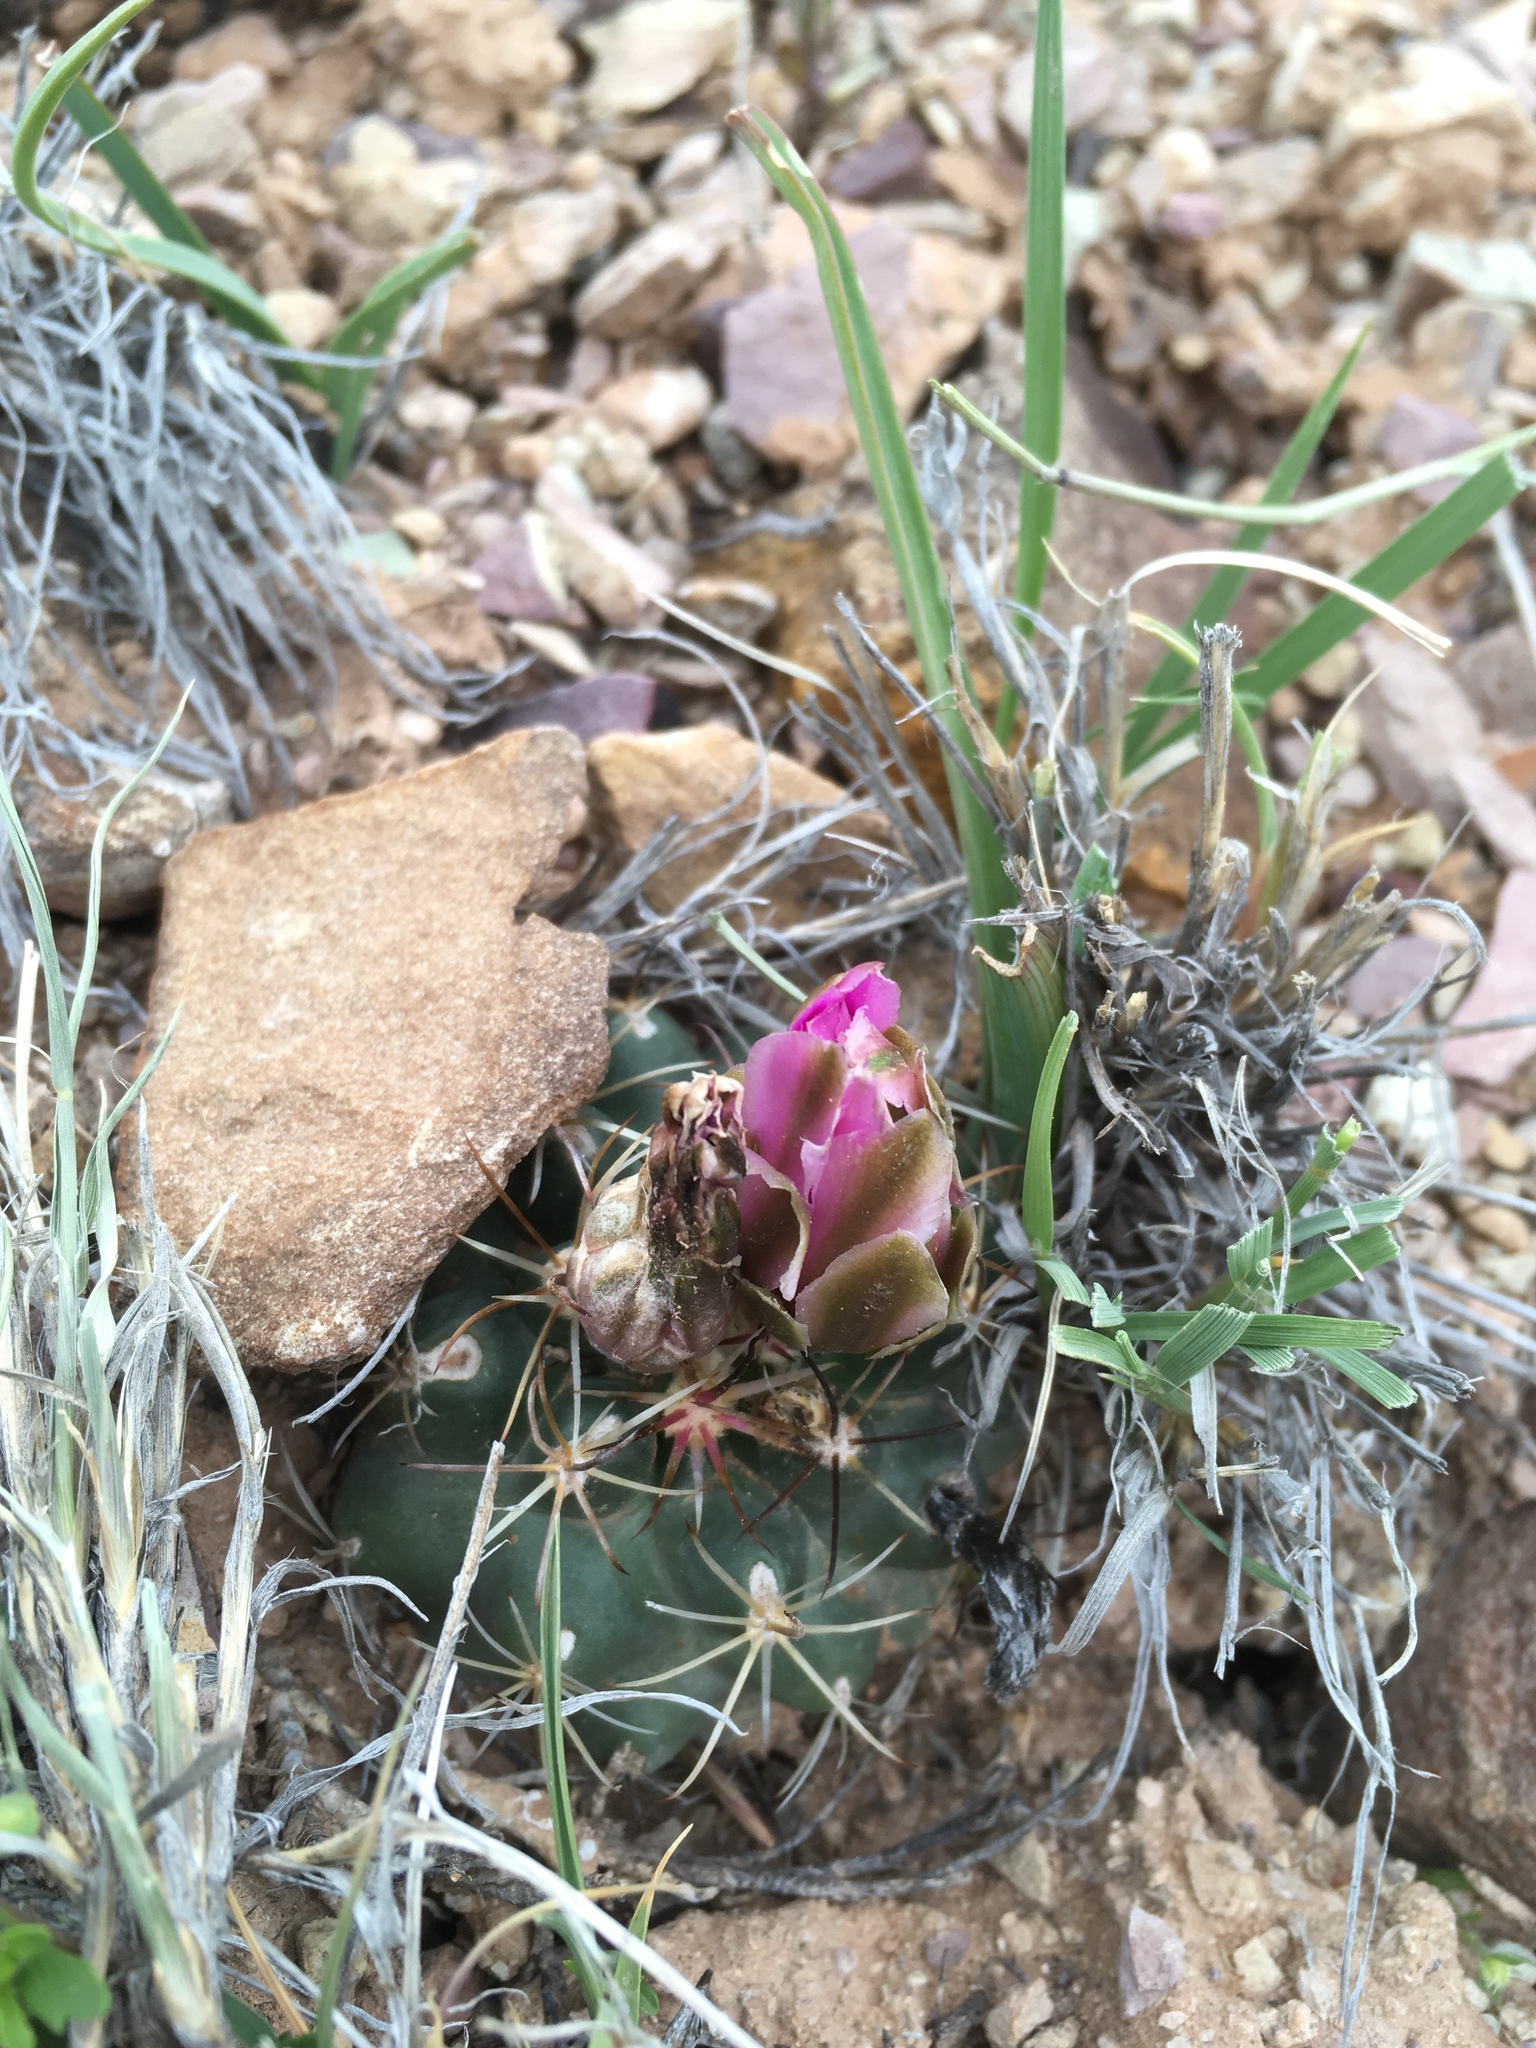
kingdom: Plantae
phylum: Tracheophyta
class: Magnoliopsida
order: Caryophyllales
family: Cactaceae
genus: Sclerocactus
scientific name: Sclerocactus glaucus
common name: Colorado hookless cactus
